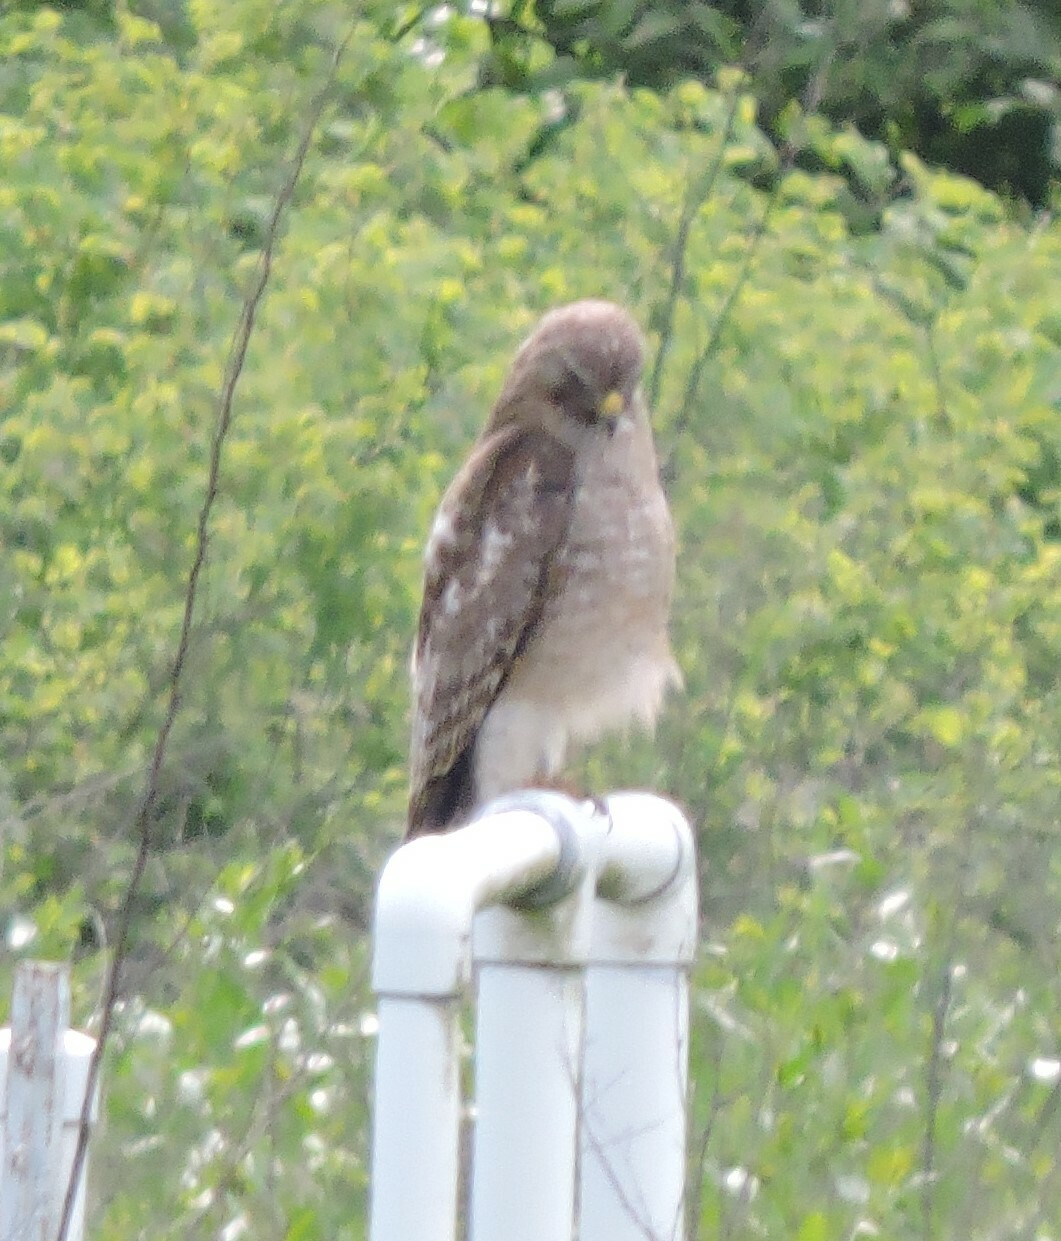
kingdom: Animalia
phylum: Chordata
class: Aves
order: Accipitriformes
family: Accipitridae
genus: Buteo
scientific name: Buteo lineatus
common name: Red-shouldered hawk
